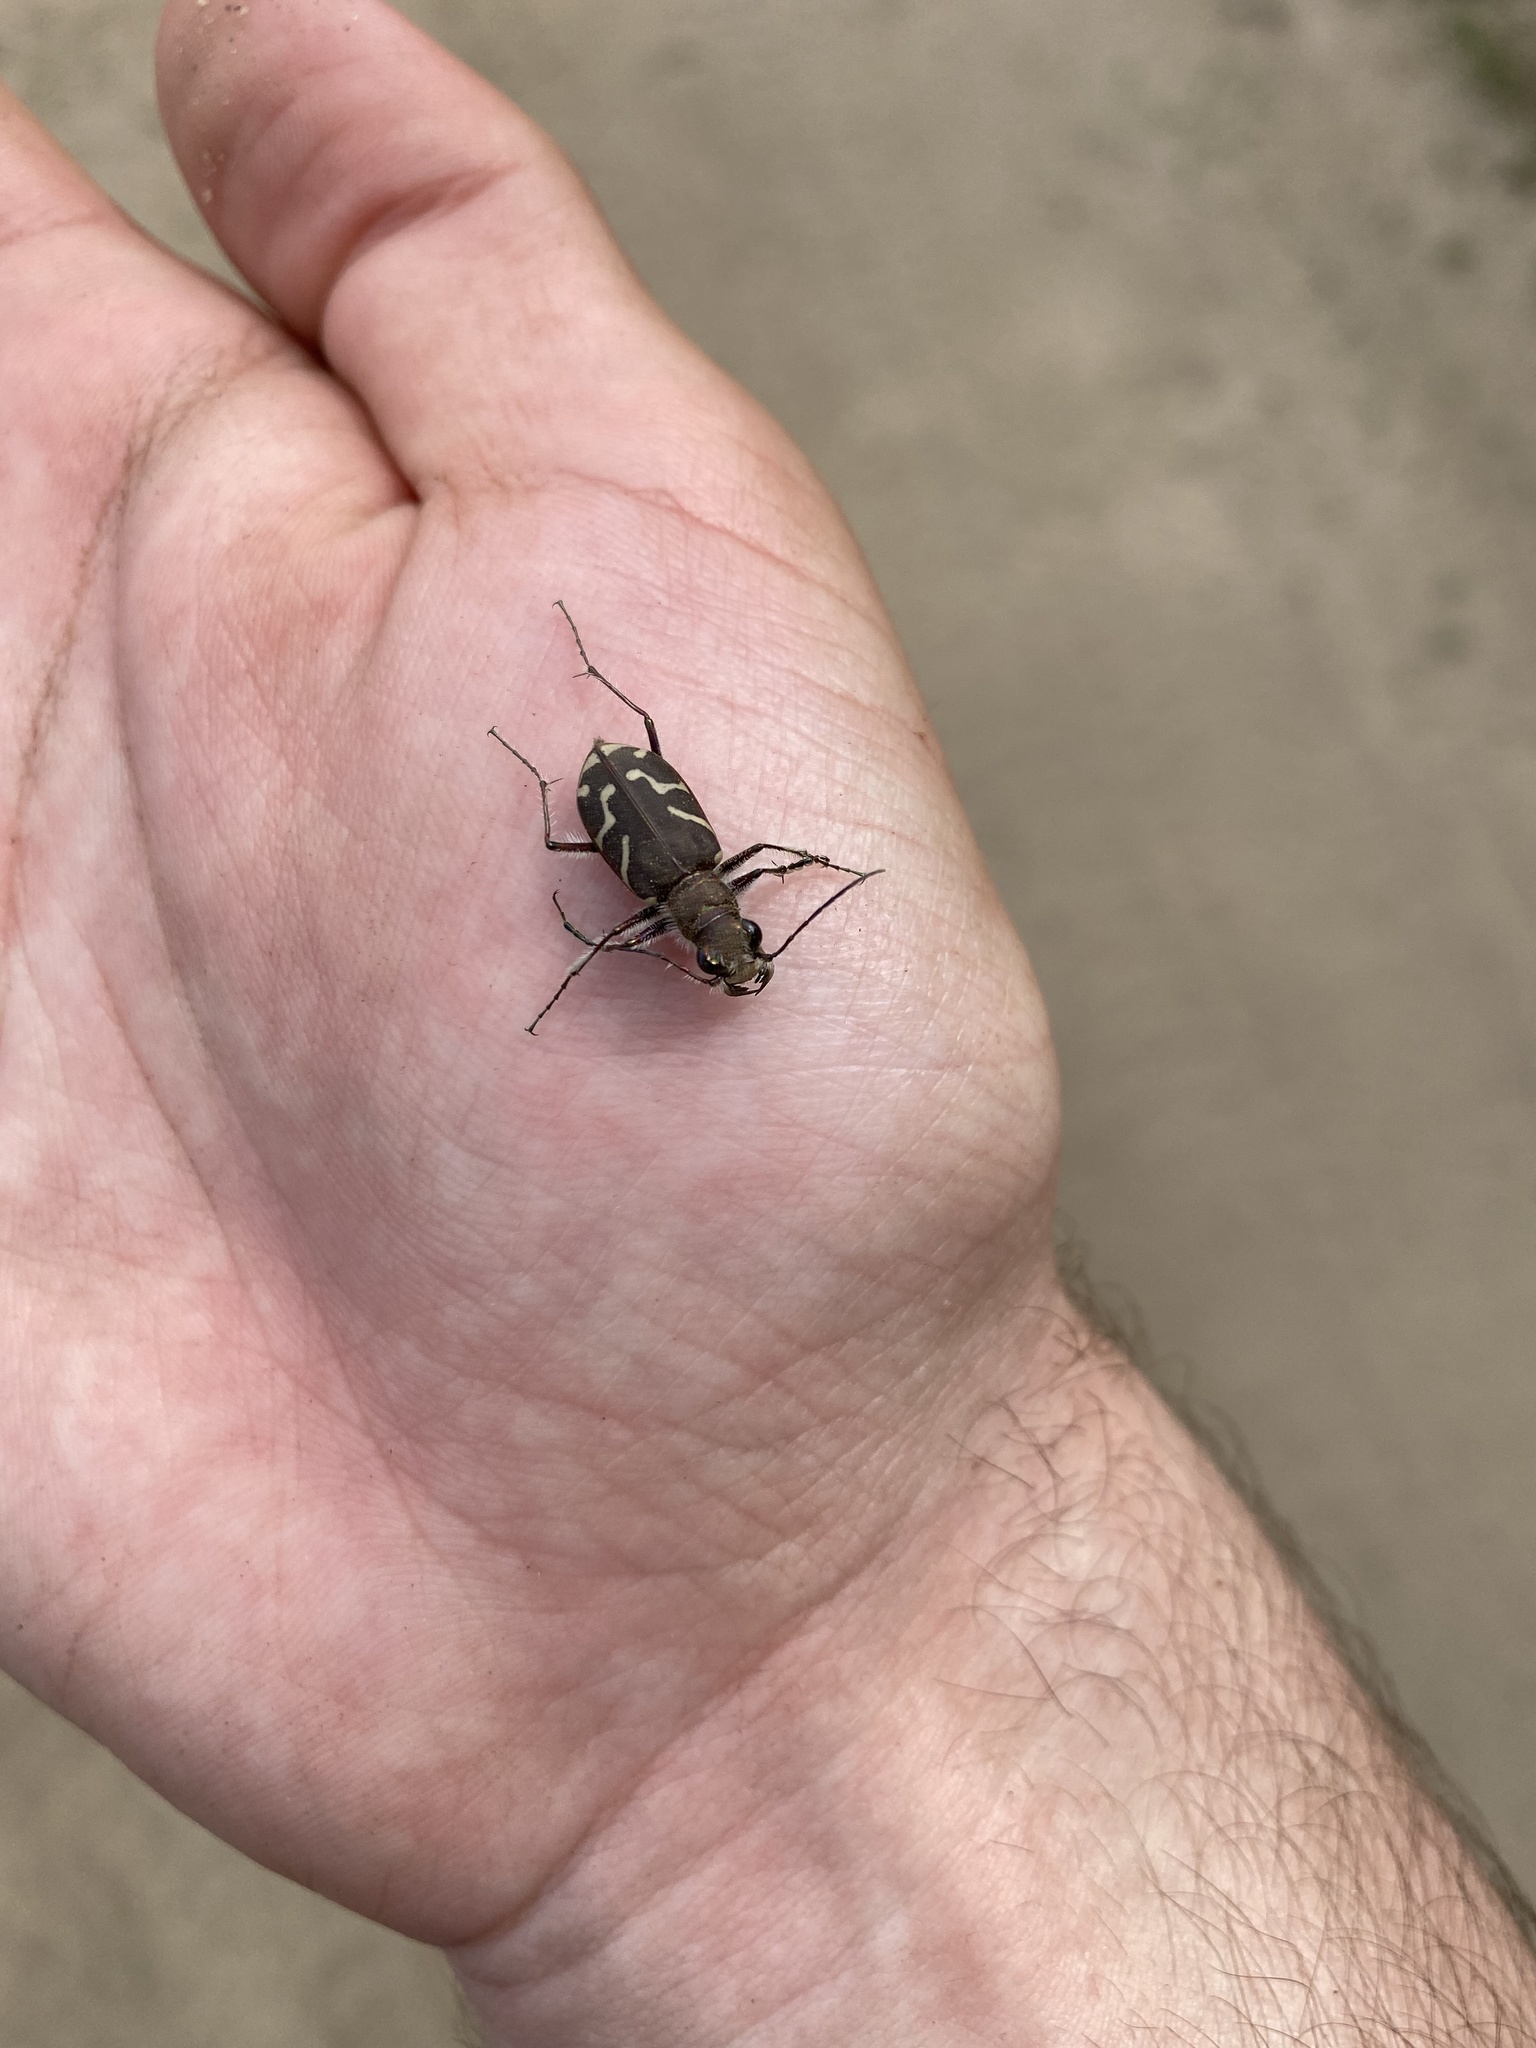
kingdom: Animalia
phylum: Arthropoda
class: Insecta
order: Coleoptera
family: Carabidae
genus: Cicindela
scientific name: Cicindela tranquebarica
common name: Oblique-lined tiger beetle
